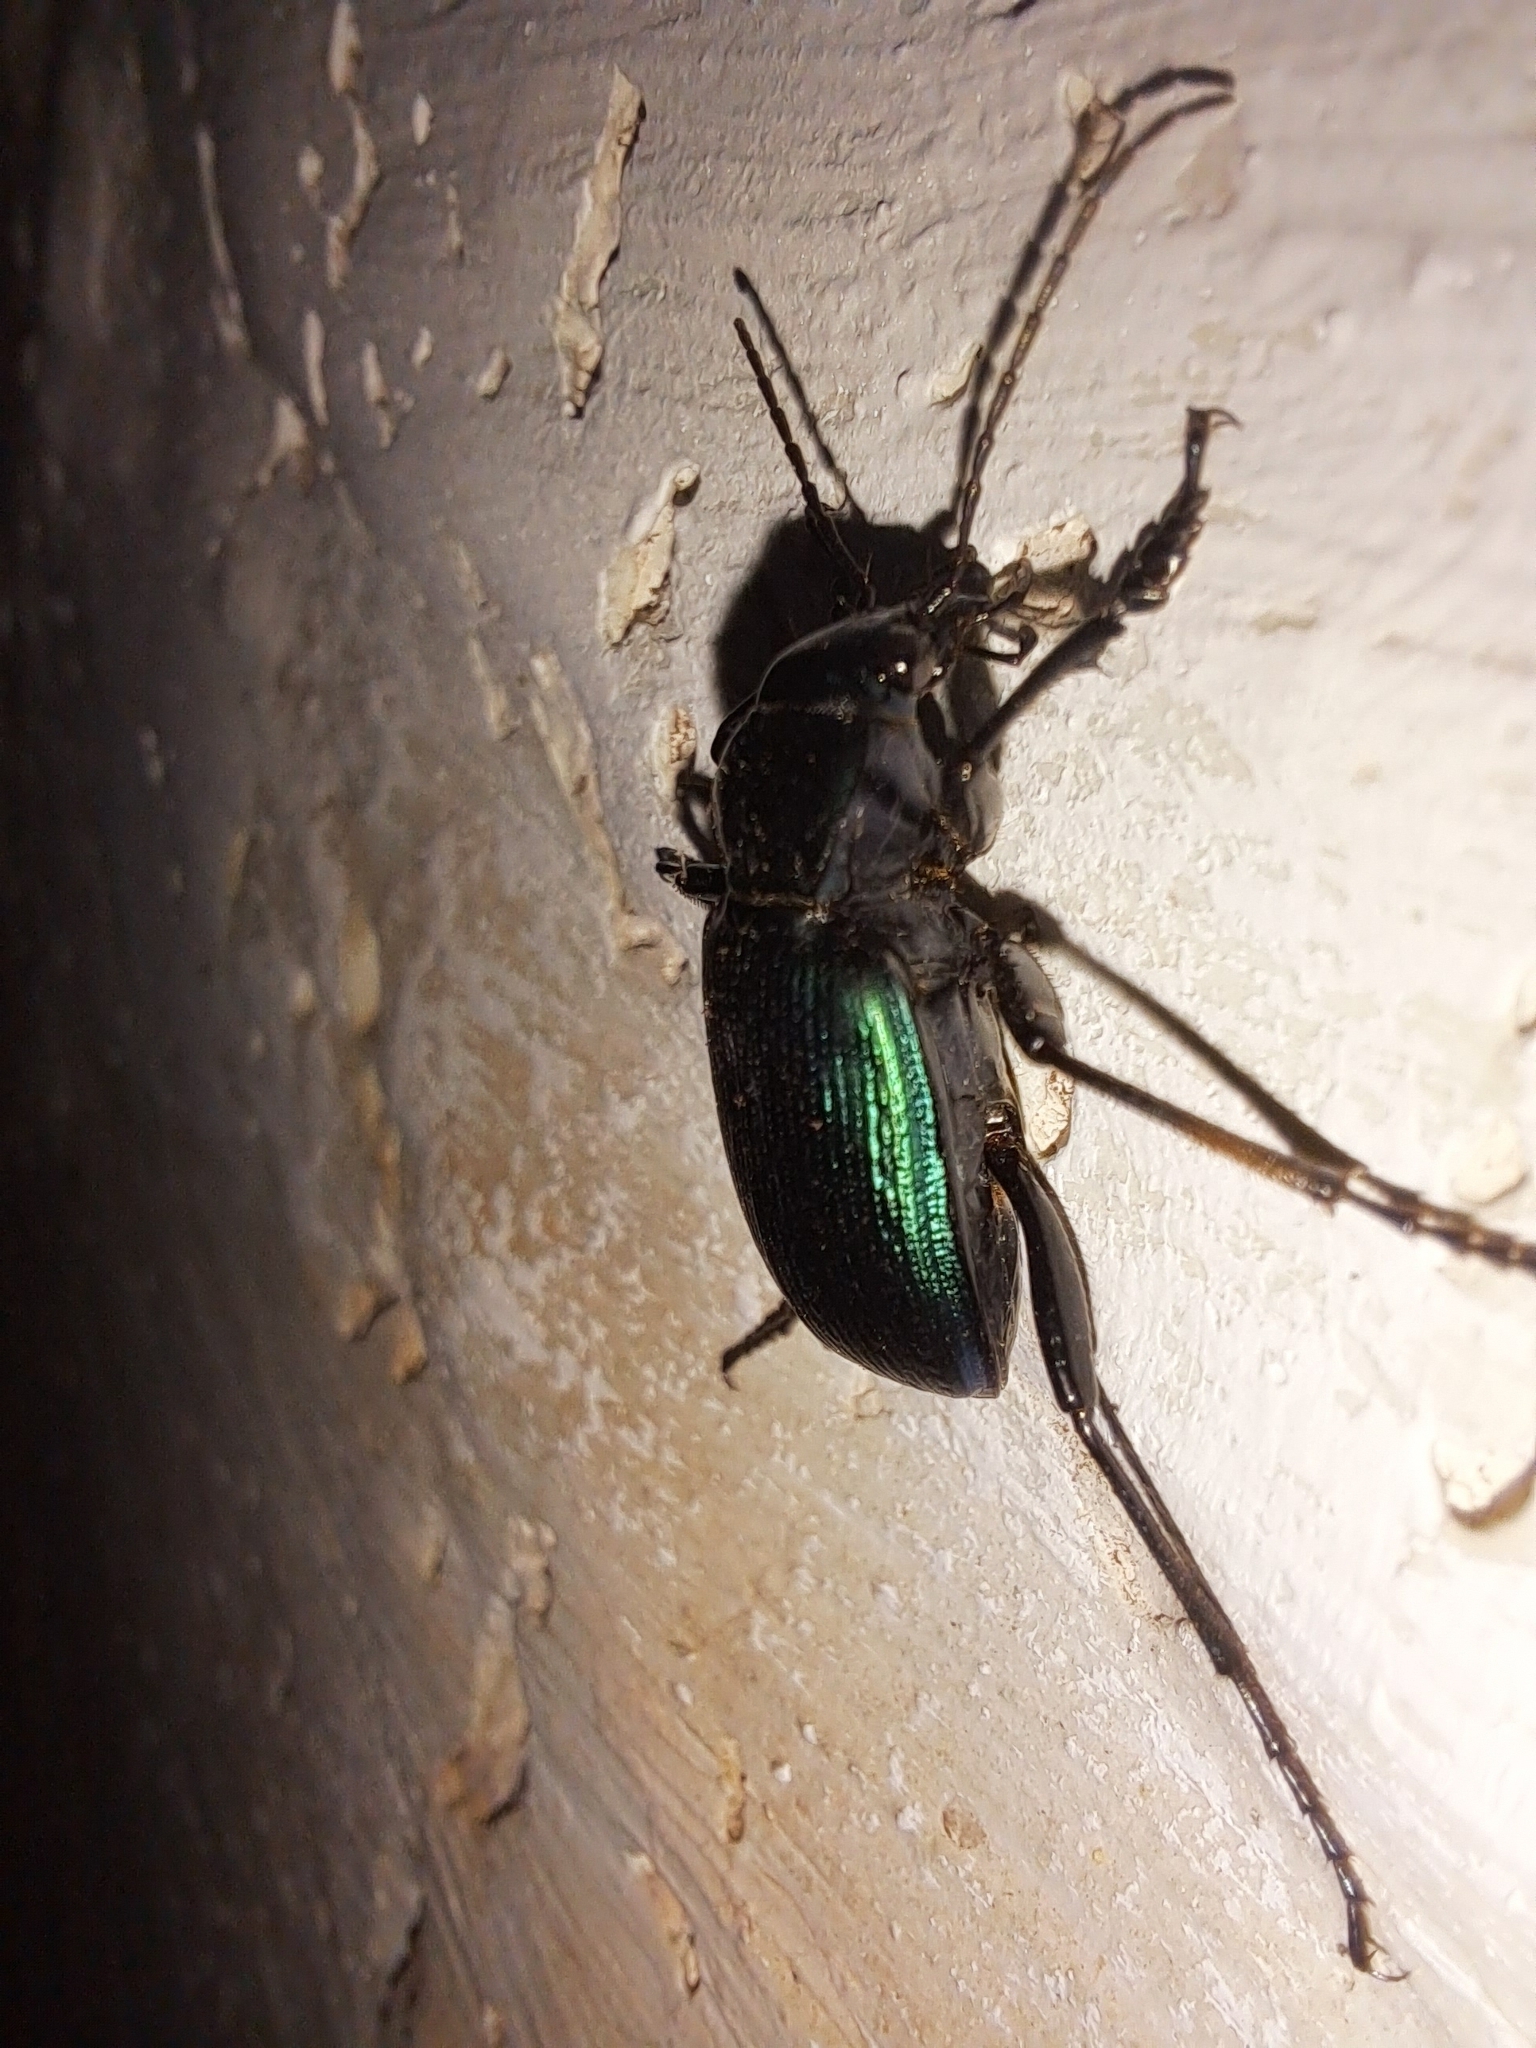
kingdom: Animalia
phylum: Arthropoda
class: Insecta
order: Coleoptera
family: Carabidae
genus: Calosoma
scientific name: Calosoma granatense
